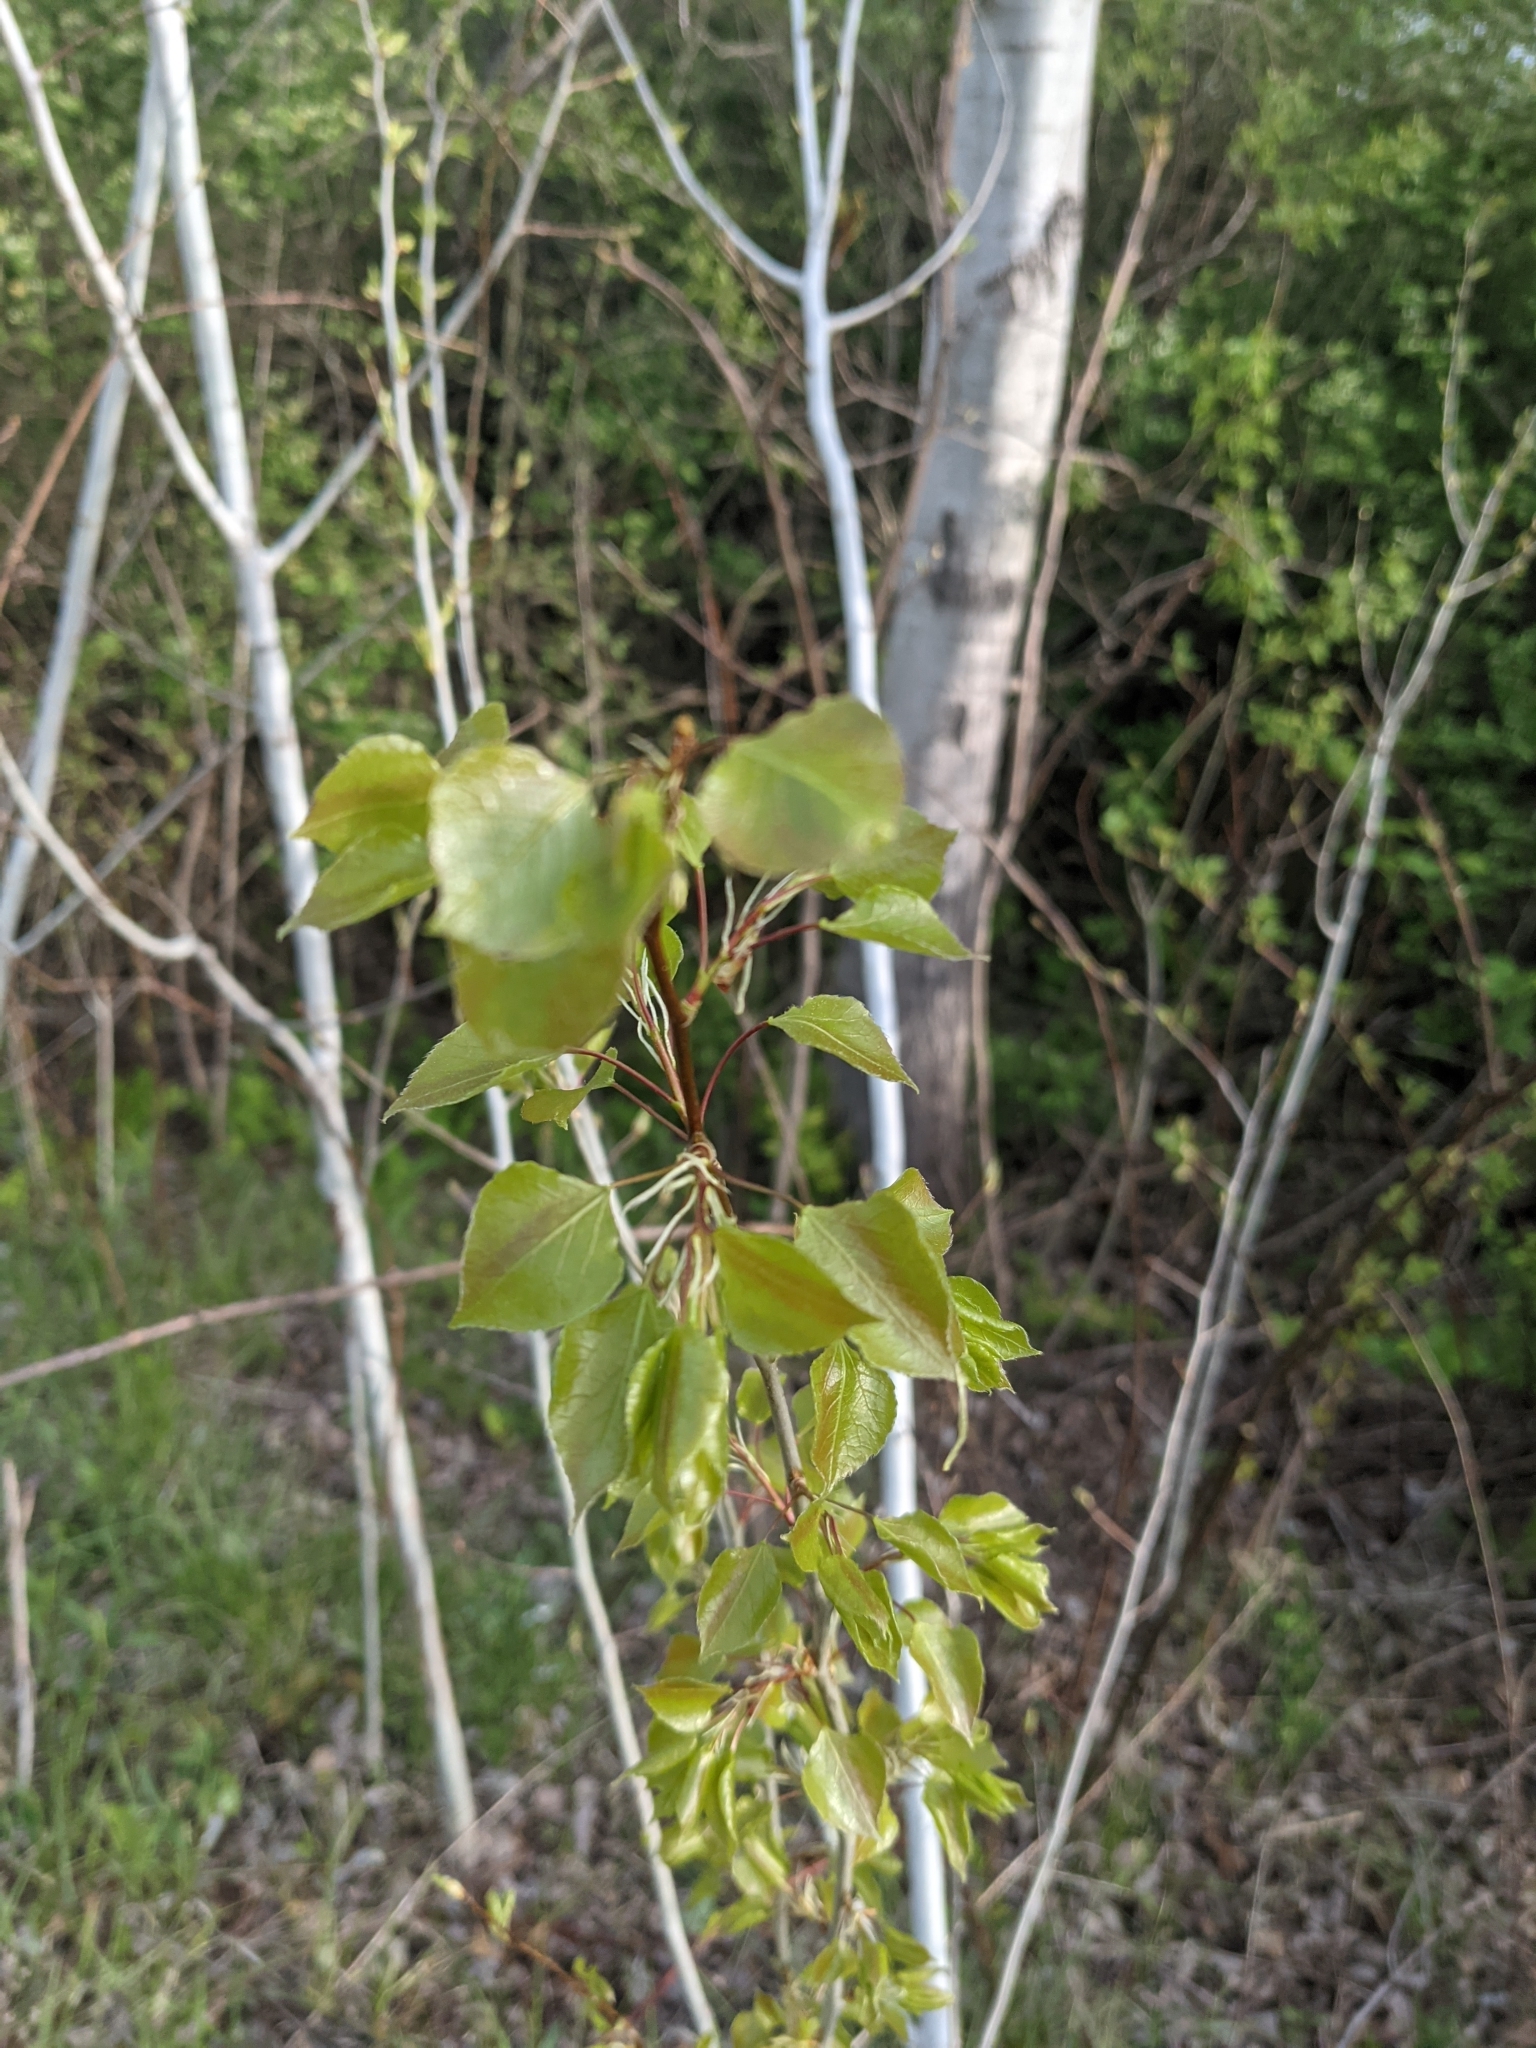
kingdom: Plantae
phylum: Tracheophyta
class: Magnoliopsida
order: Malpighiales
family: Salicaceae
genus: Populus
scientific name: Populus tremuloides
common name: Quaking aspen
